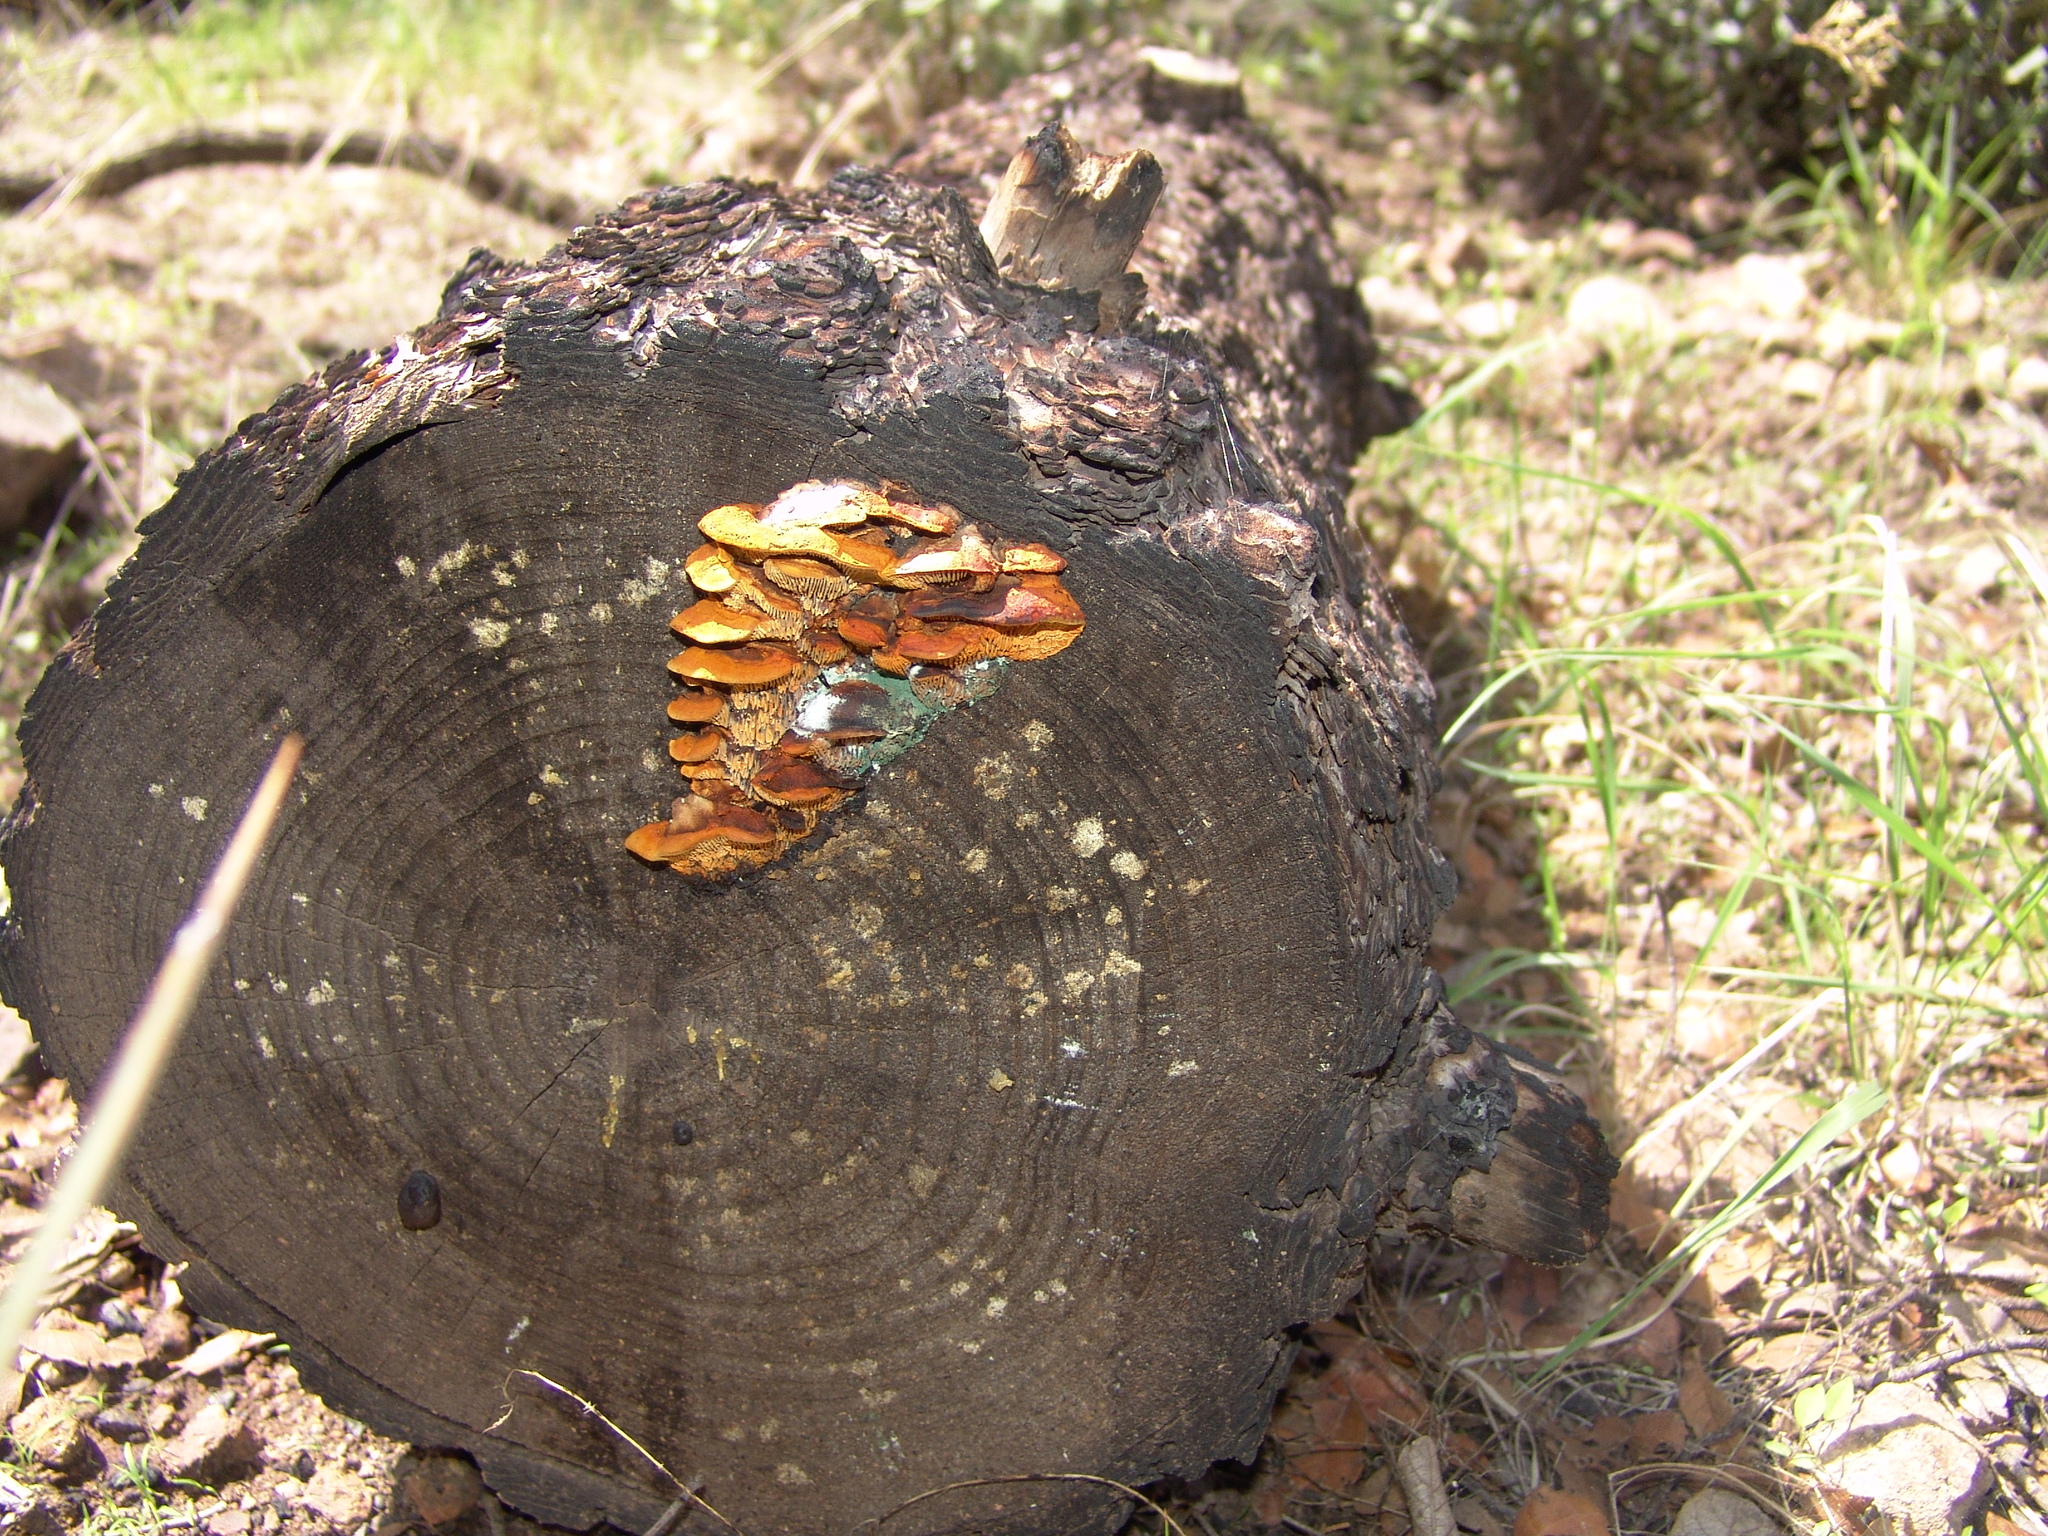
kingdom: Fungi
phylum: Basidiomycota
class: Agaricomycetes
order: Gloeophyllales
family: Gloeophyllaceae
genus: Gloeophyllum
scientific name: Gloeophyllum sepiarium
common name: Conifer mazegill
